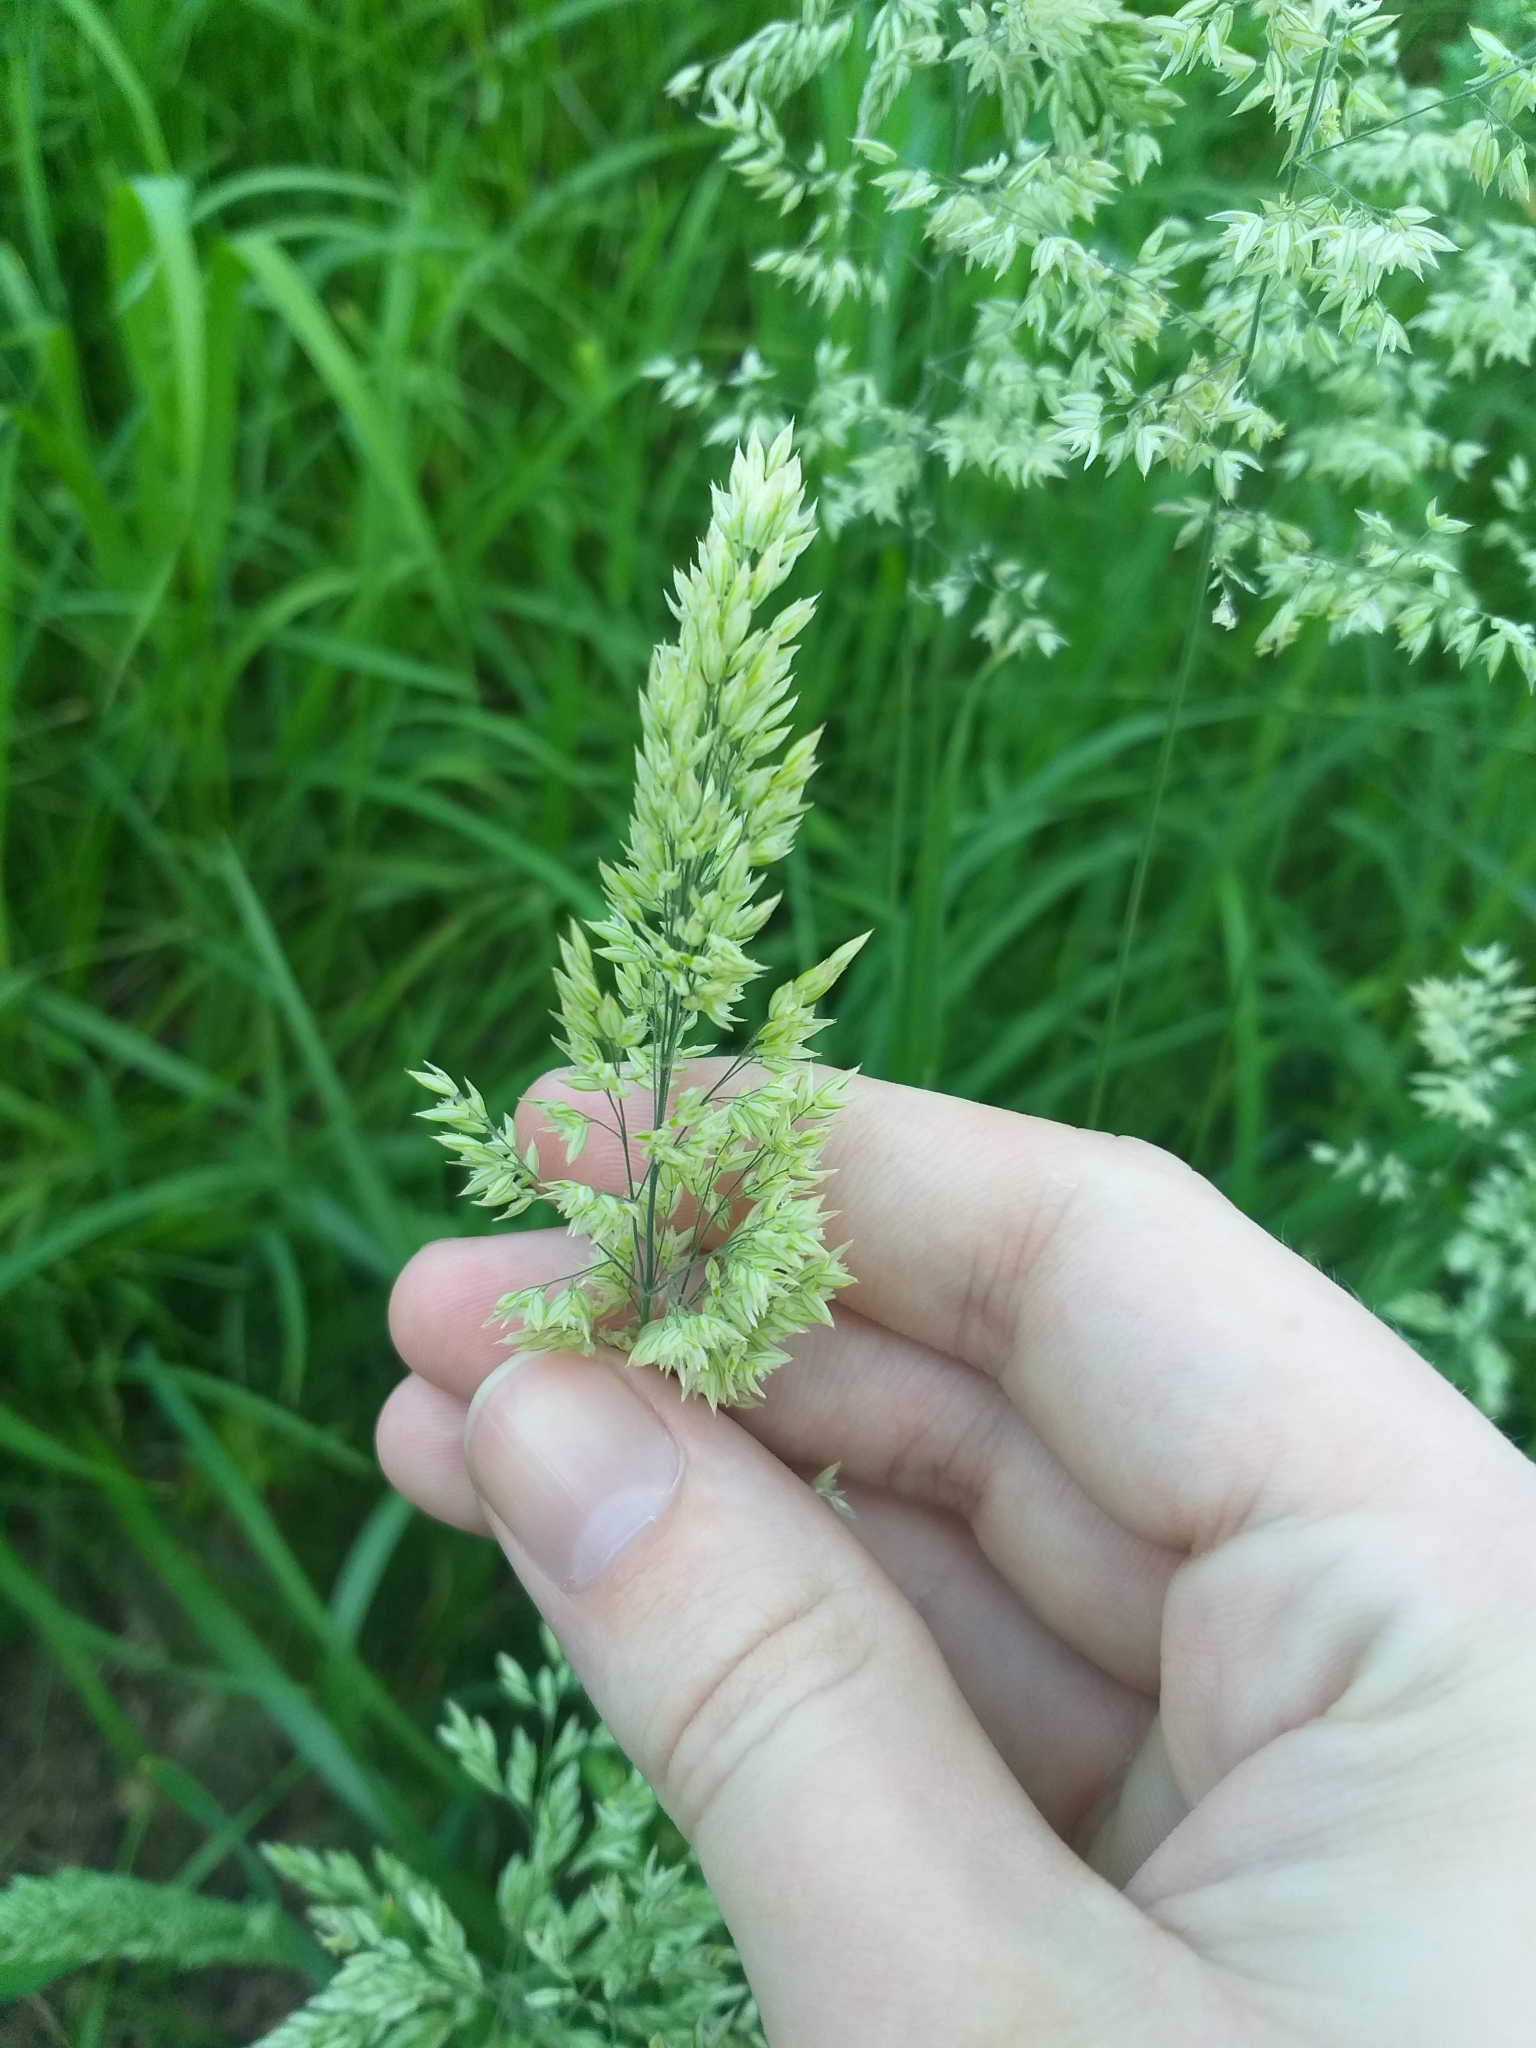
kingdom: Plantae
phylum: Tracheophyta
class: Liliopsida
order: Poales
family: Poaceae
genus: Holcus
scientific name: Holcus lanatus
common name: Yorkshire-fog
